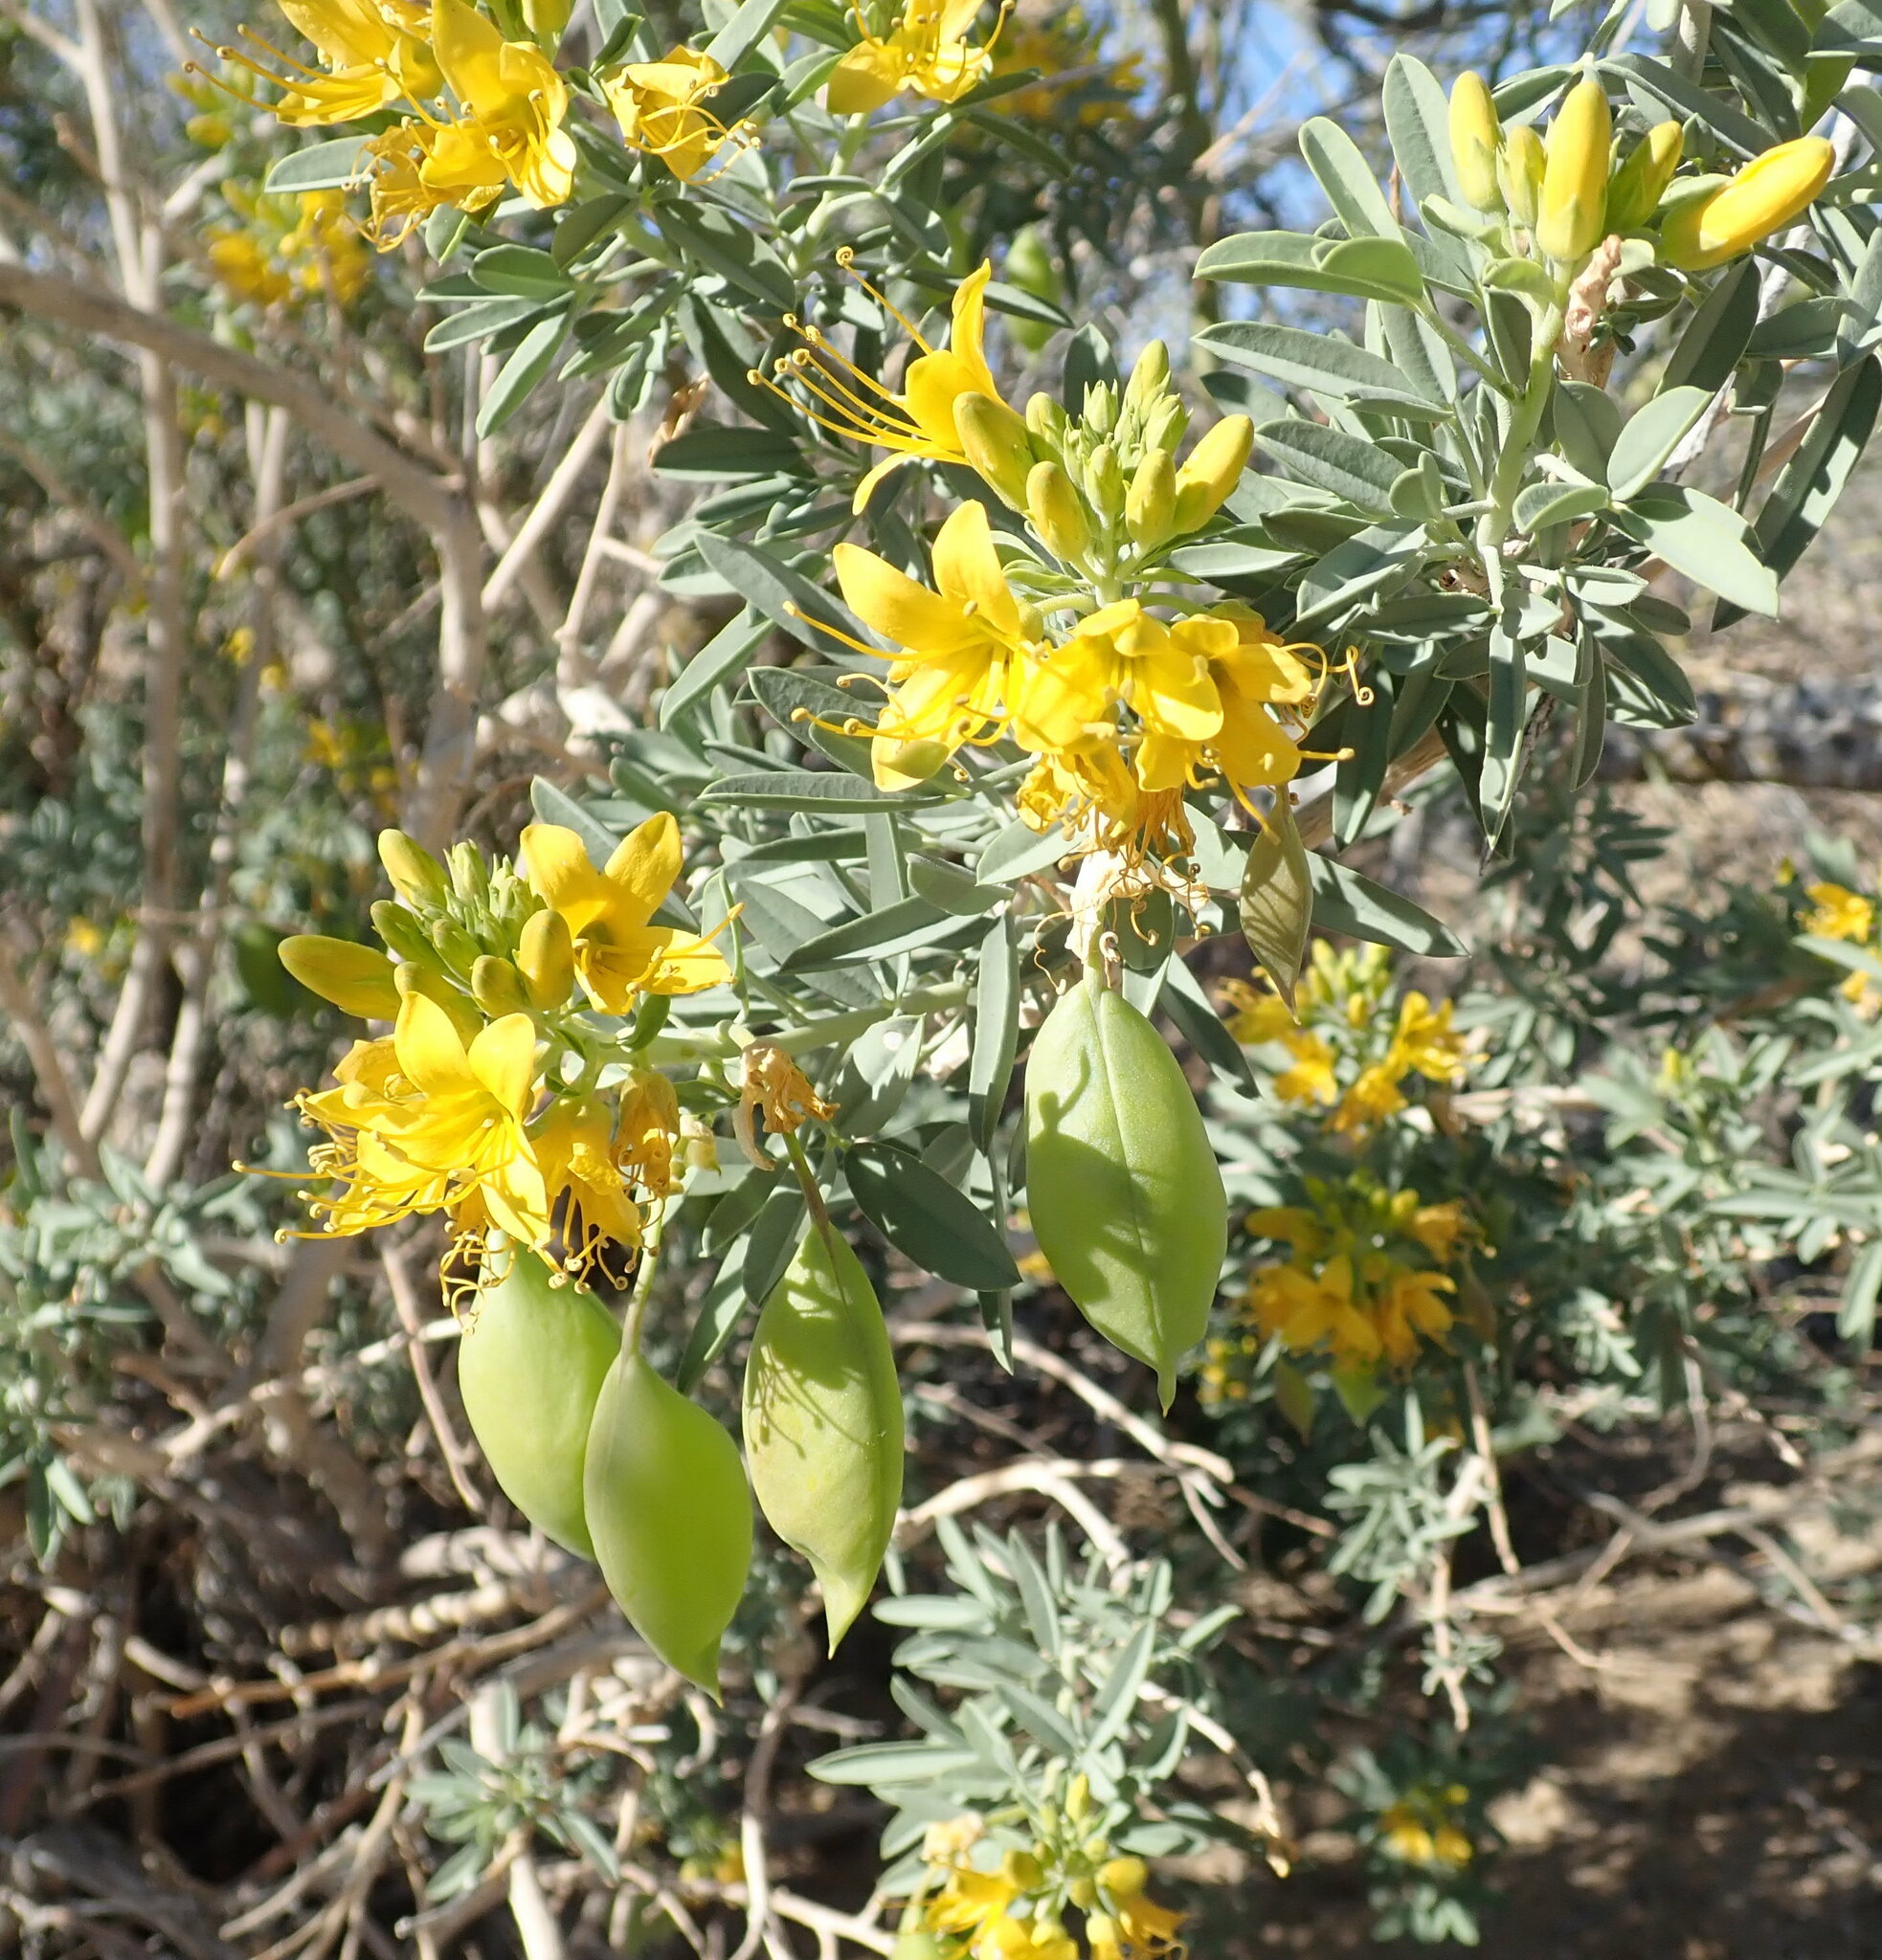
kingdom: Plantae
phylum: Tracheophyta
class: Magnoliopsida
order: Brassicales
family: Cleomaceae
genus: Cleomella
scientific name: Cleomella arborea
